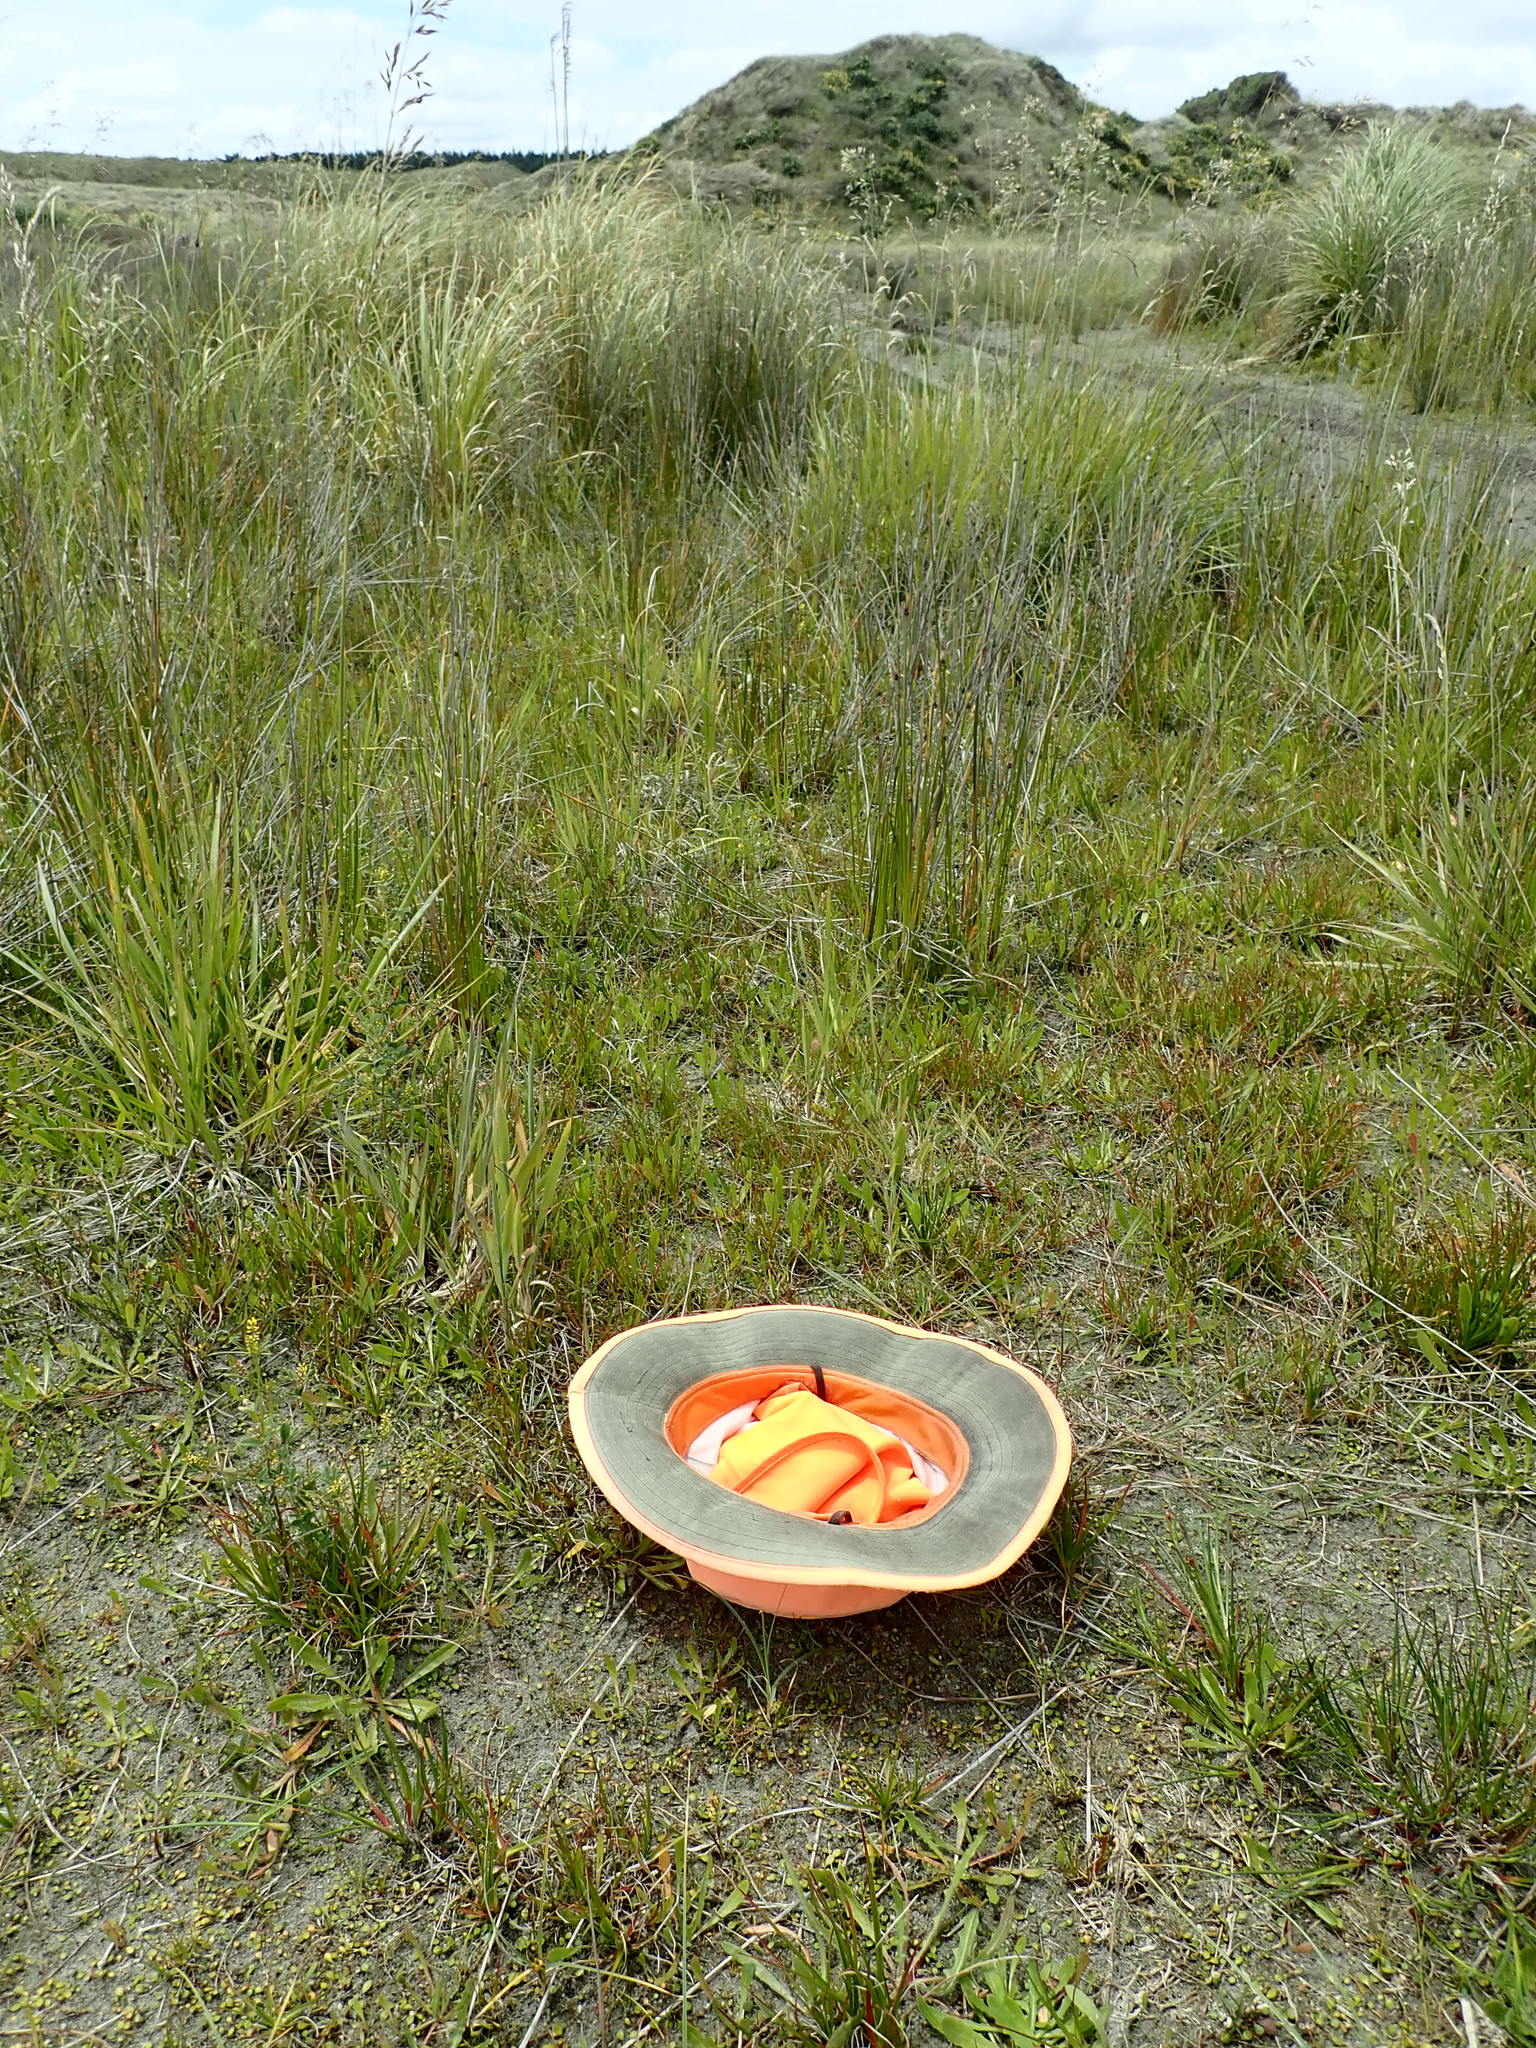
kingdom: Plantae
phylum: Tracheophyta
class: Liliopsida
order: Poales
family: Juncaceae
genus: Juncus
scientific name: Juncus caespiticius
